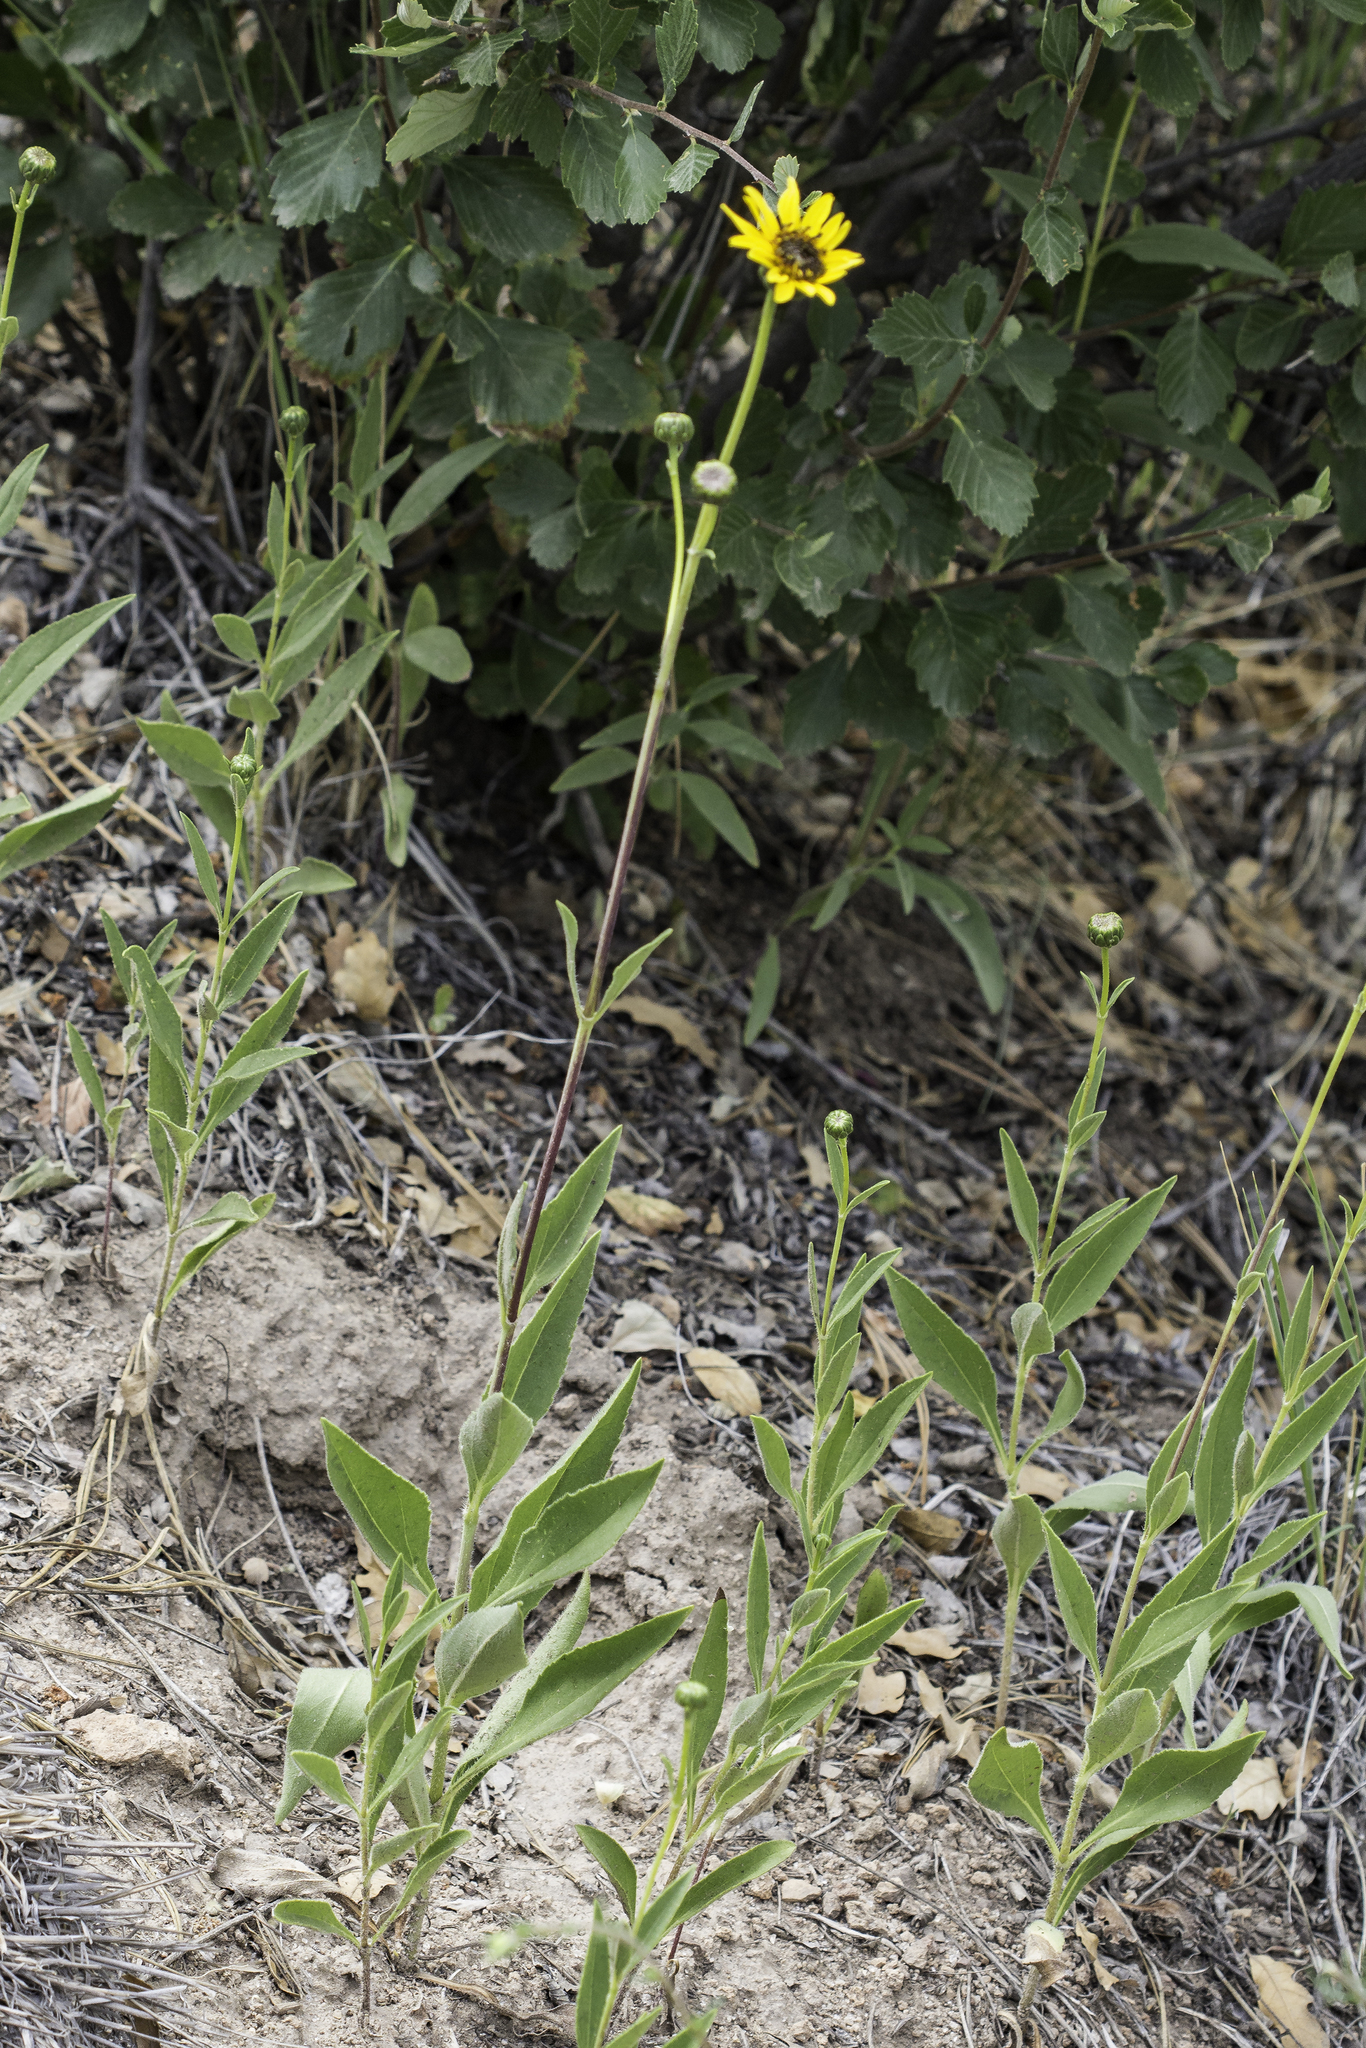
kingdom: Plantae
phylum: Tracheophyta
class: Magnoliopsida
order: Asterales
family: Asteraceae
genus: Helianthus
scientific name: Helianthus pauciflorus
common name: Stiff sunflower
